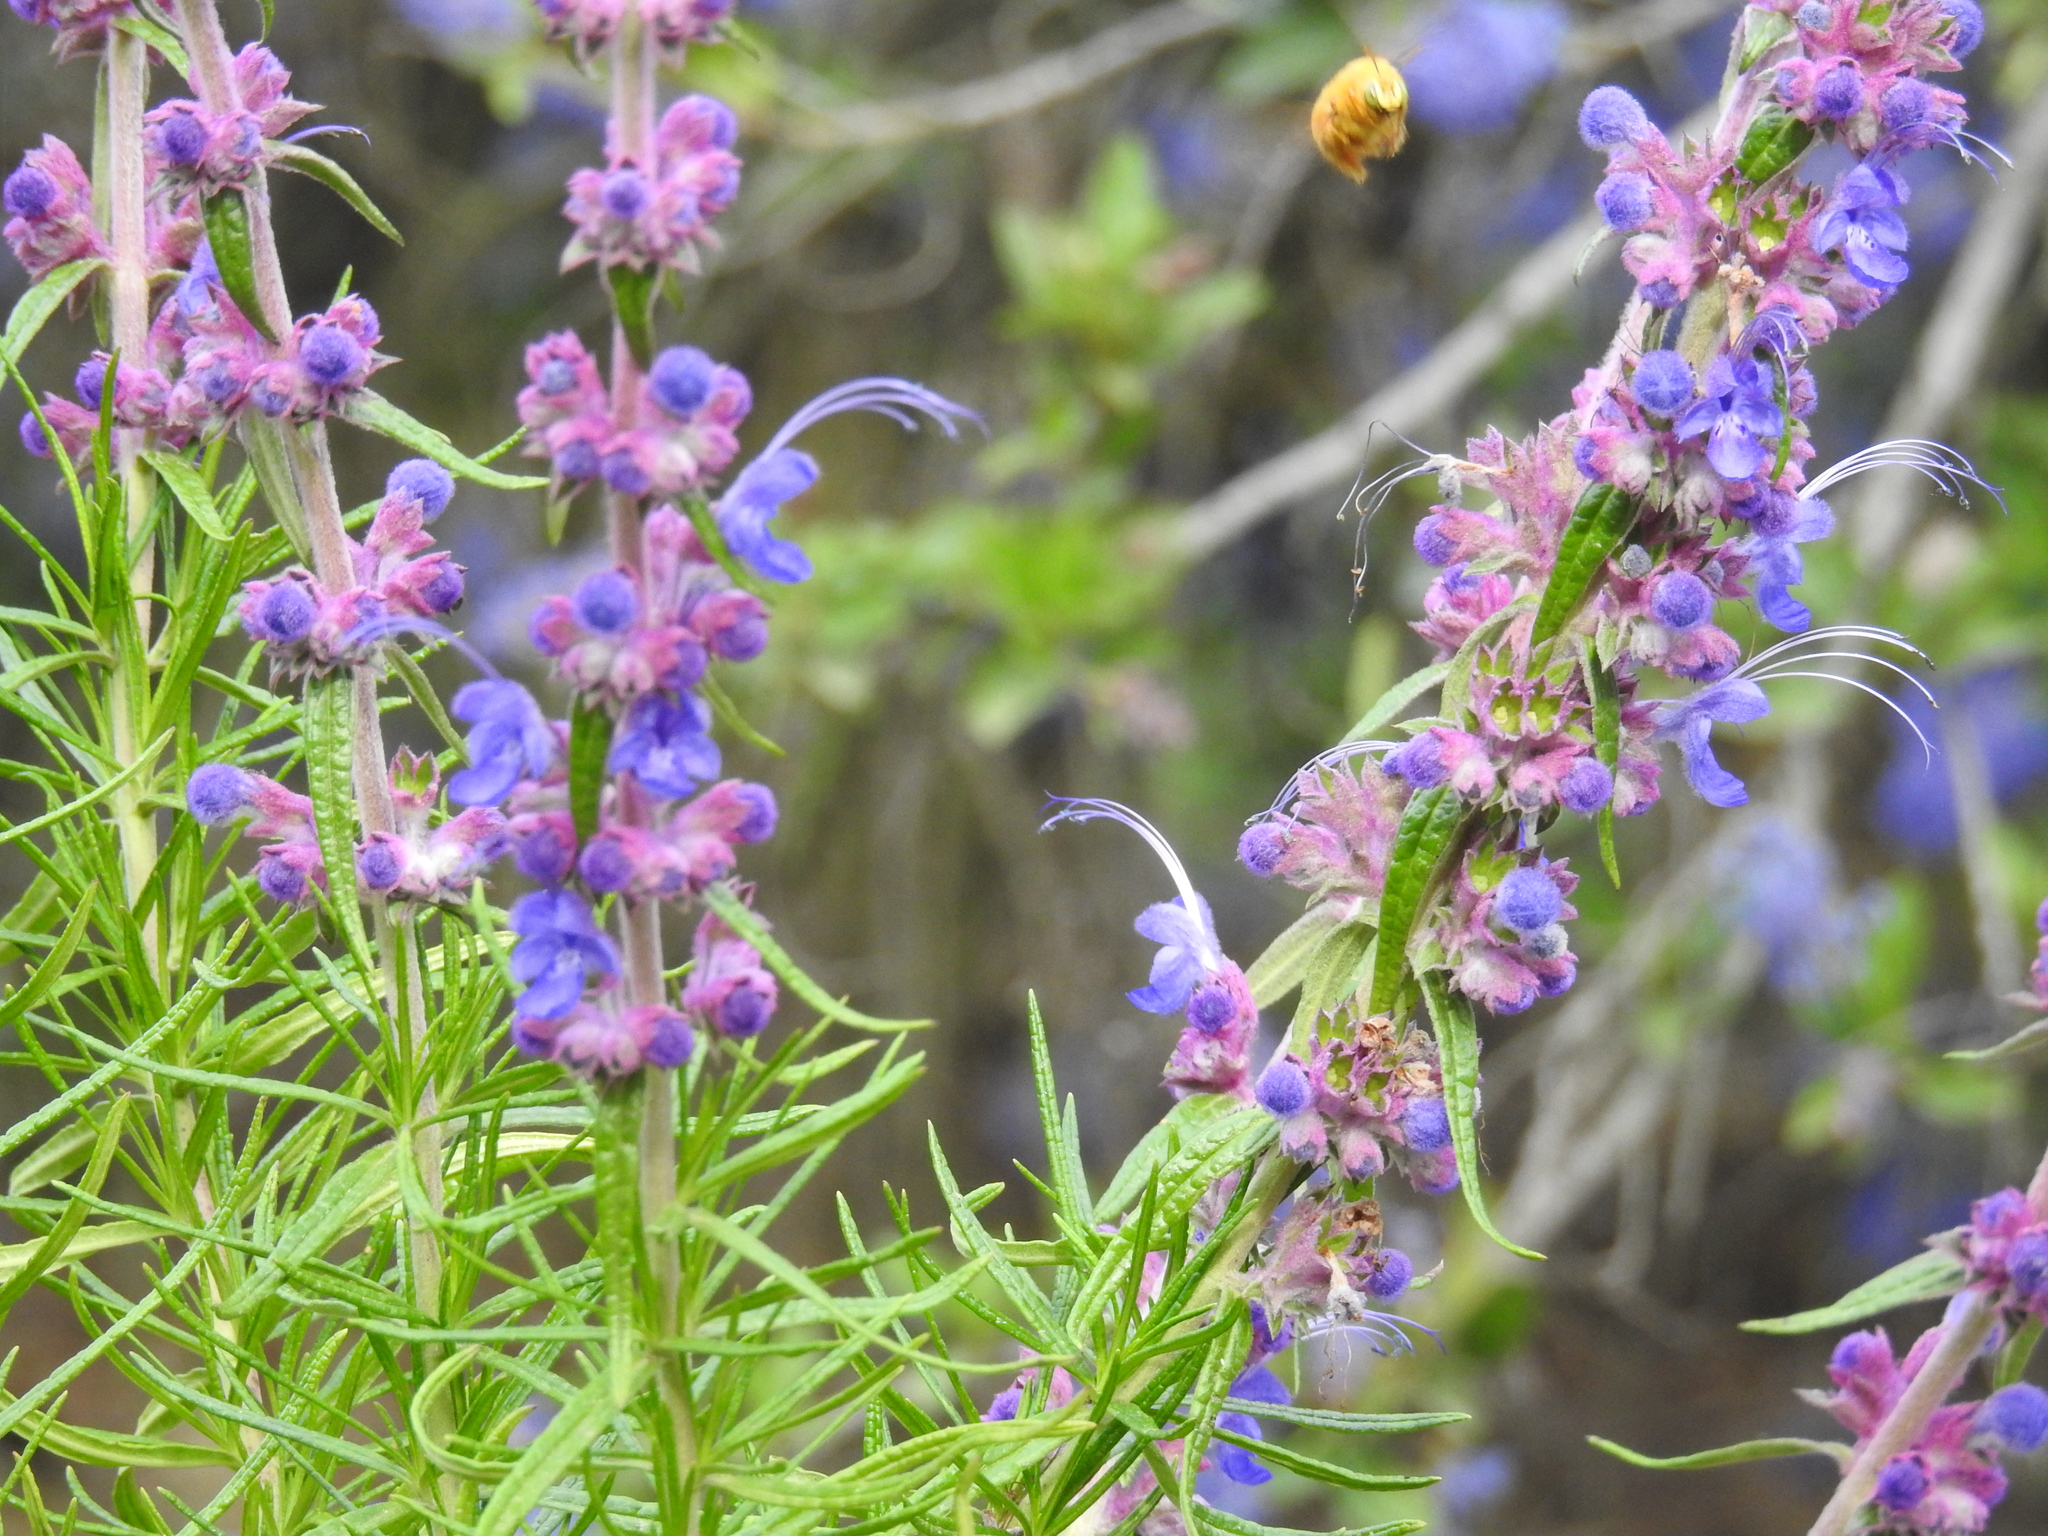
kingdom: Animalia
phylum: Arthropoda
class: Insecta
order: Hymenoptera
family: Apidae
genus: Xylocopa
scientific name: Xylocopa sonorina
